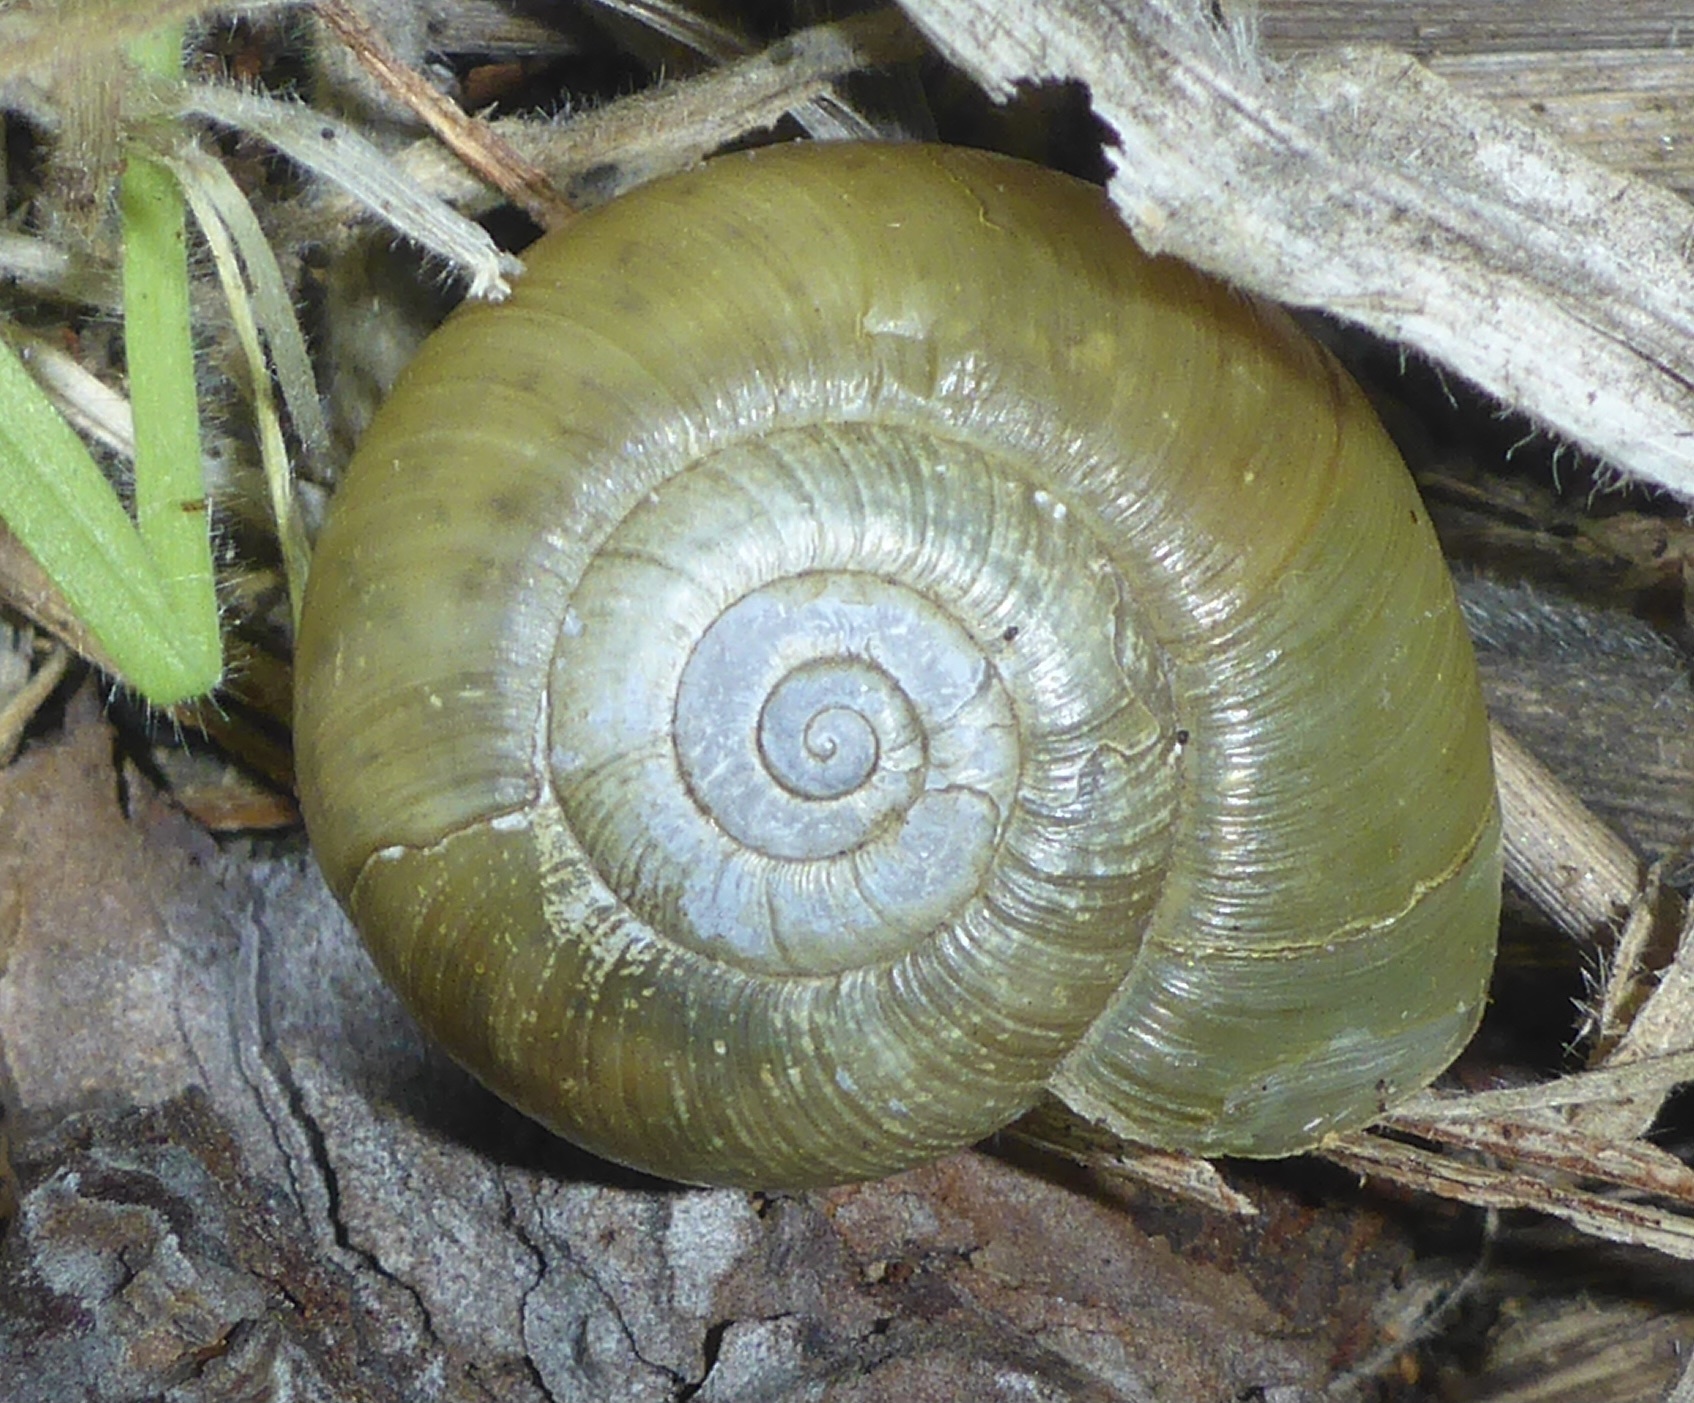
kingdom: Animalia
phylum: Mollusca
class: Gastropoda
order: Stylommatophora
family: Haplotrematidae
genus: Haplotrema
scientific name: Haplotrema minimum
